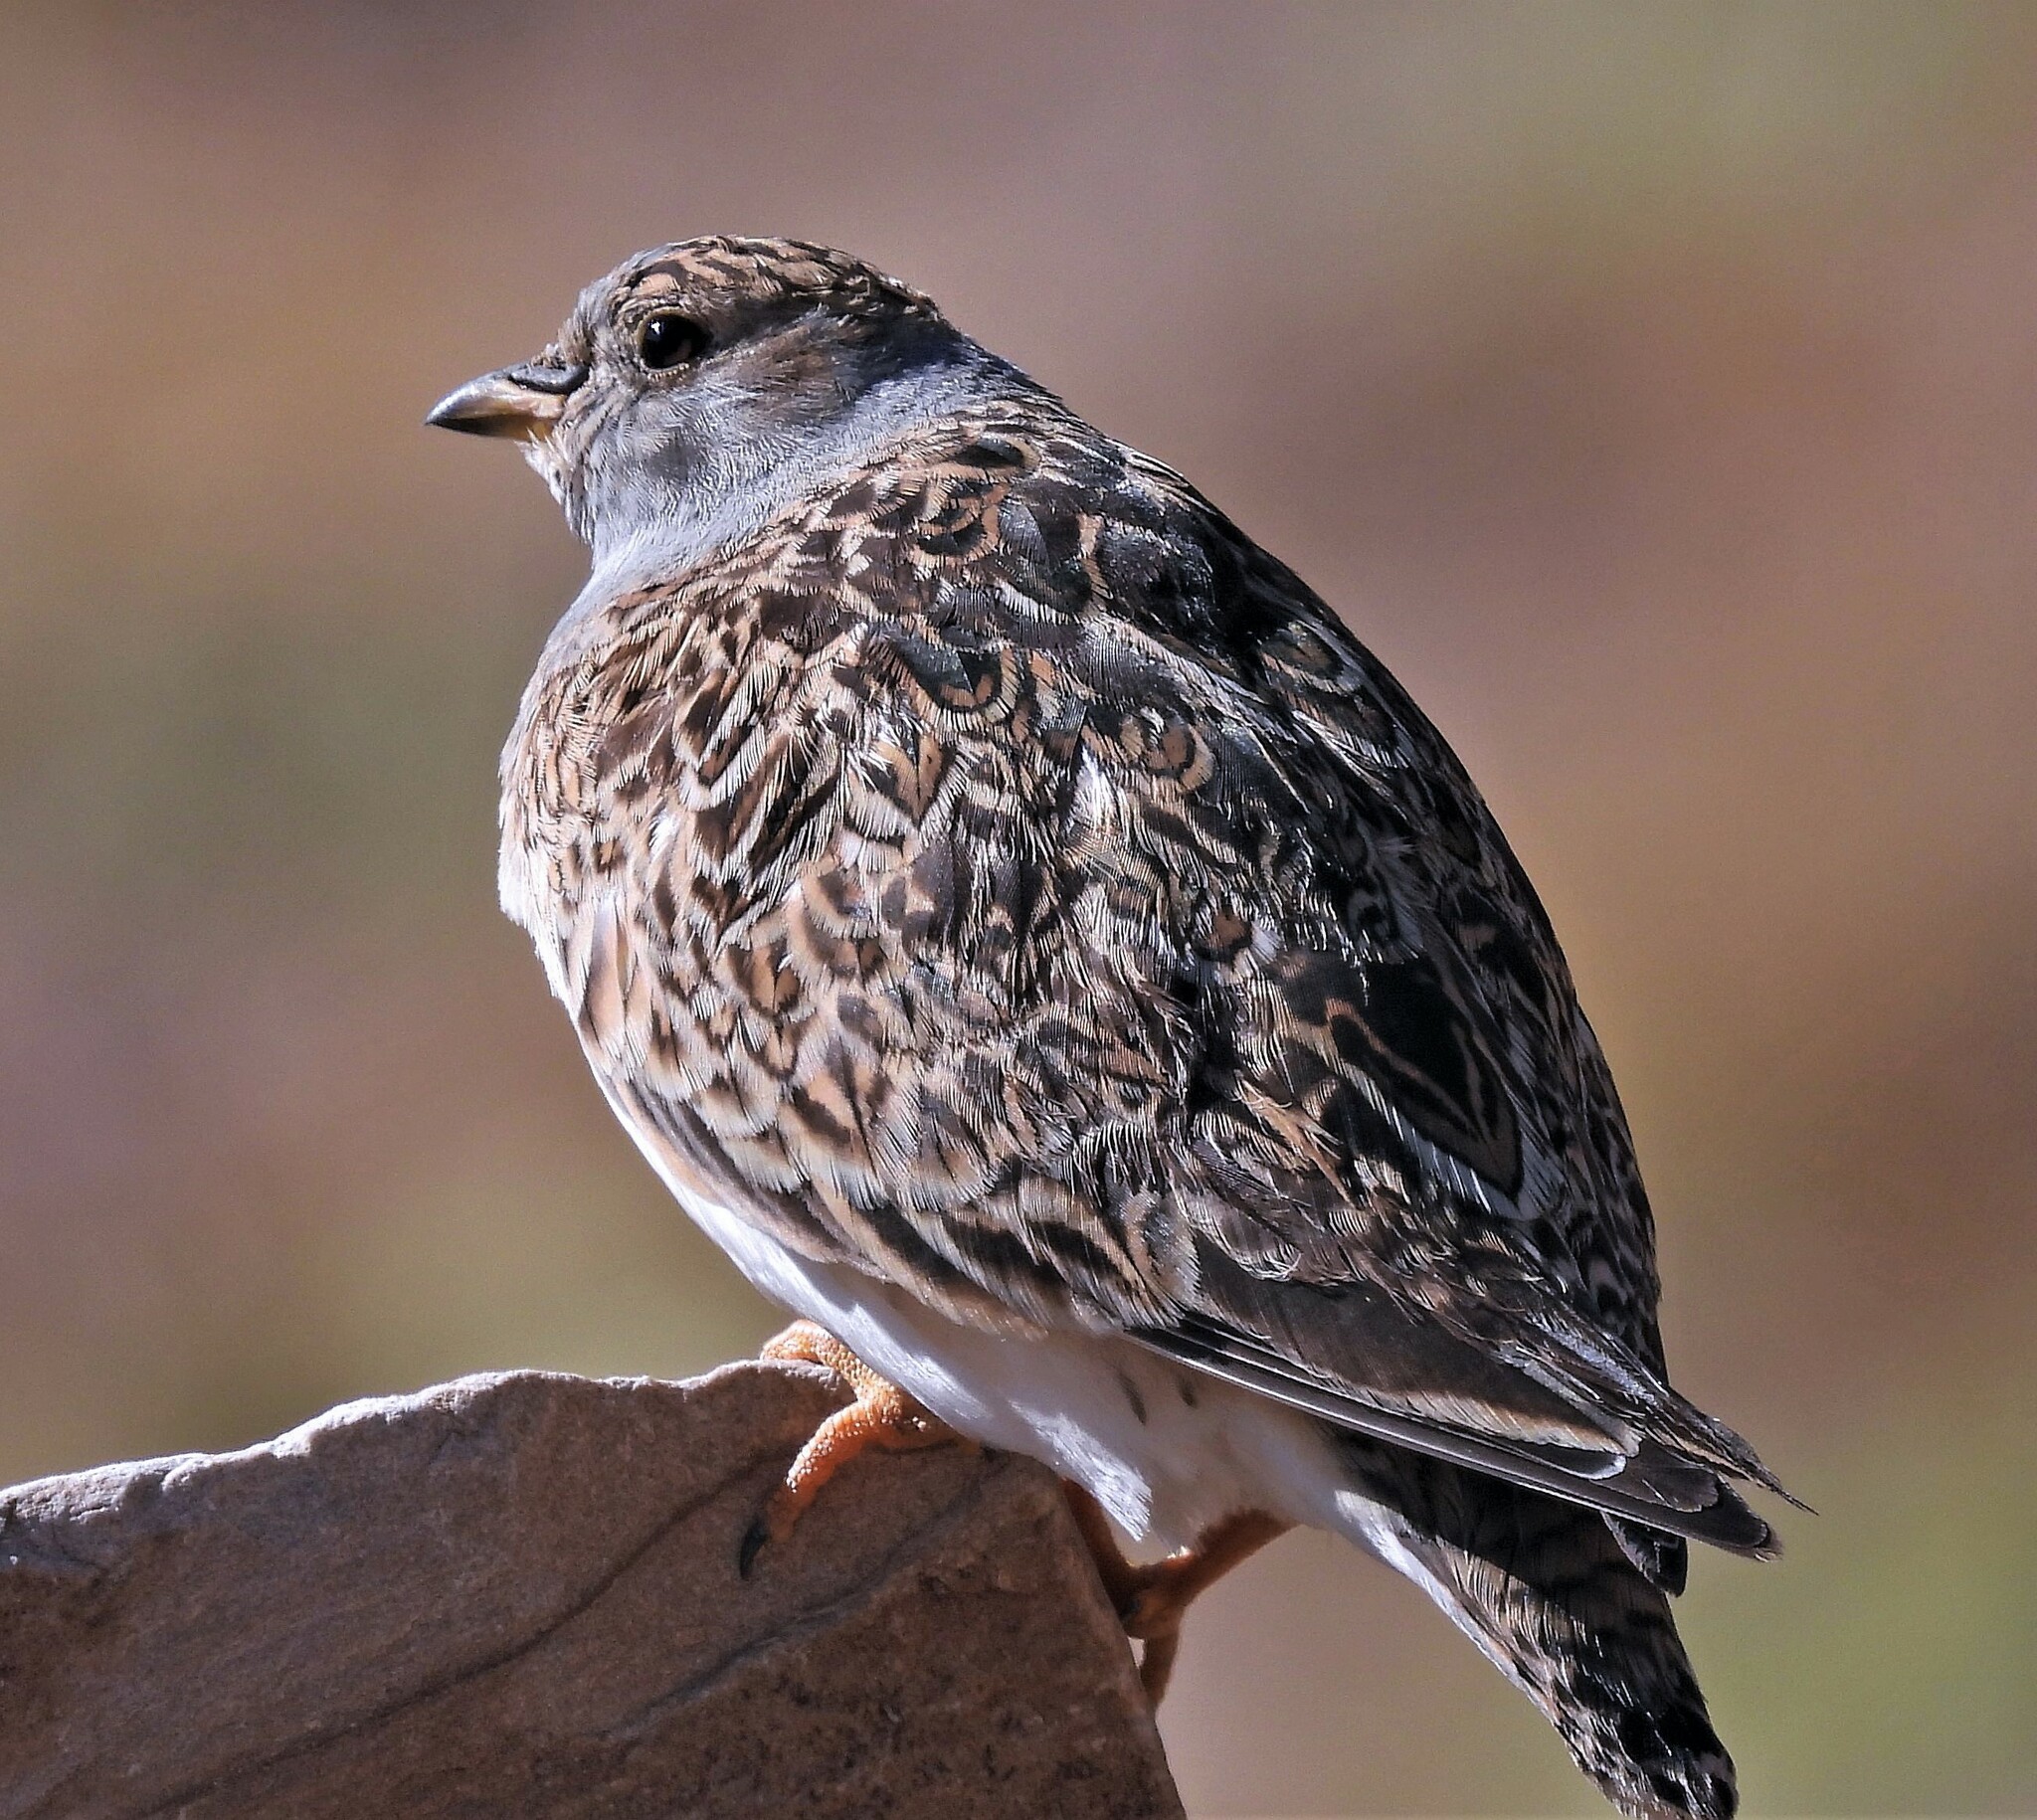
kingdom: Animalia
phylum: Chordata
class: Aves
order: Charadriiformes
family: Thinocoridae
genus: Thinocorus
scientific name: Thinocorus orbignyianus
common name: Grey-breasted seedsnipe
